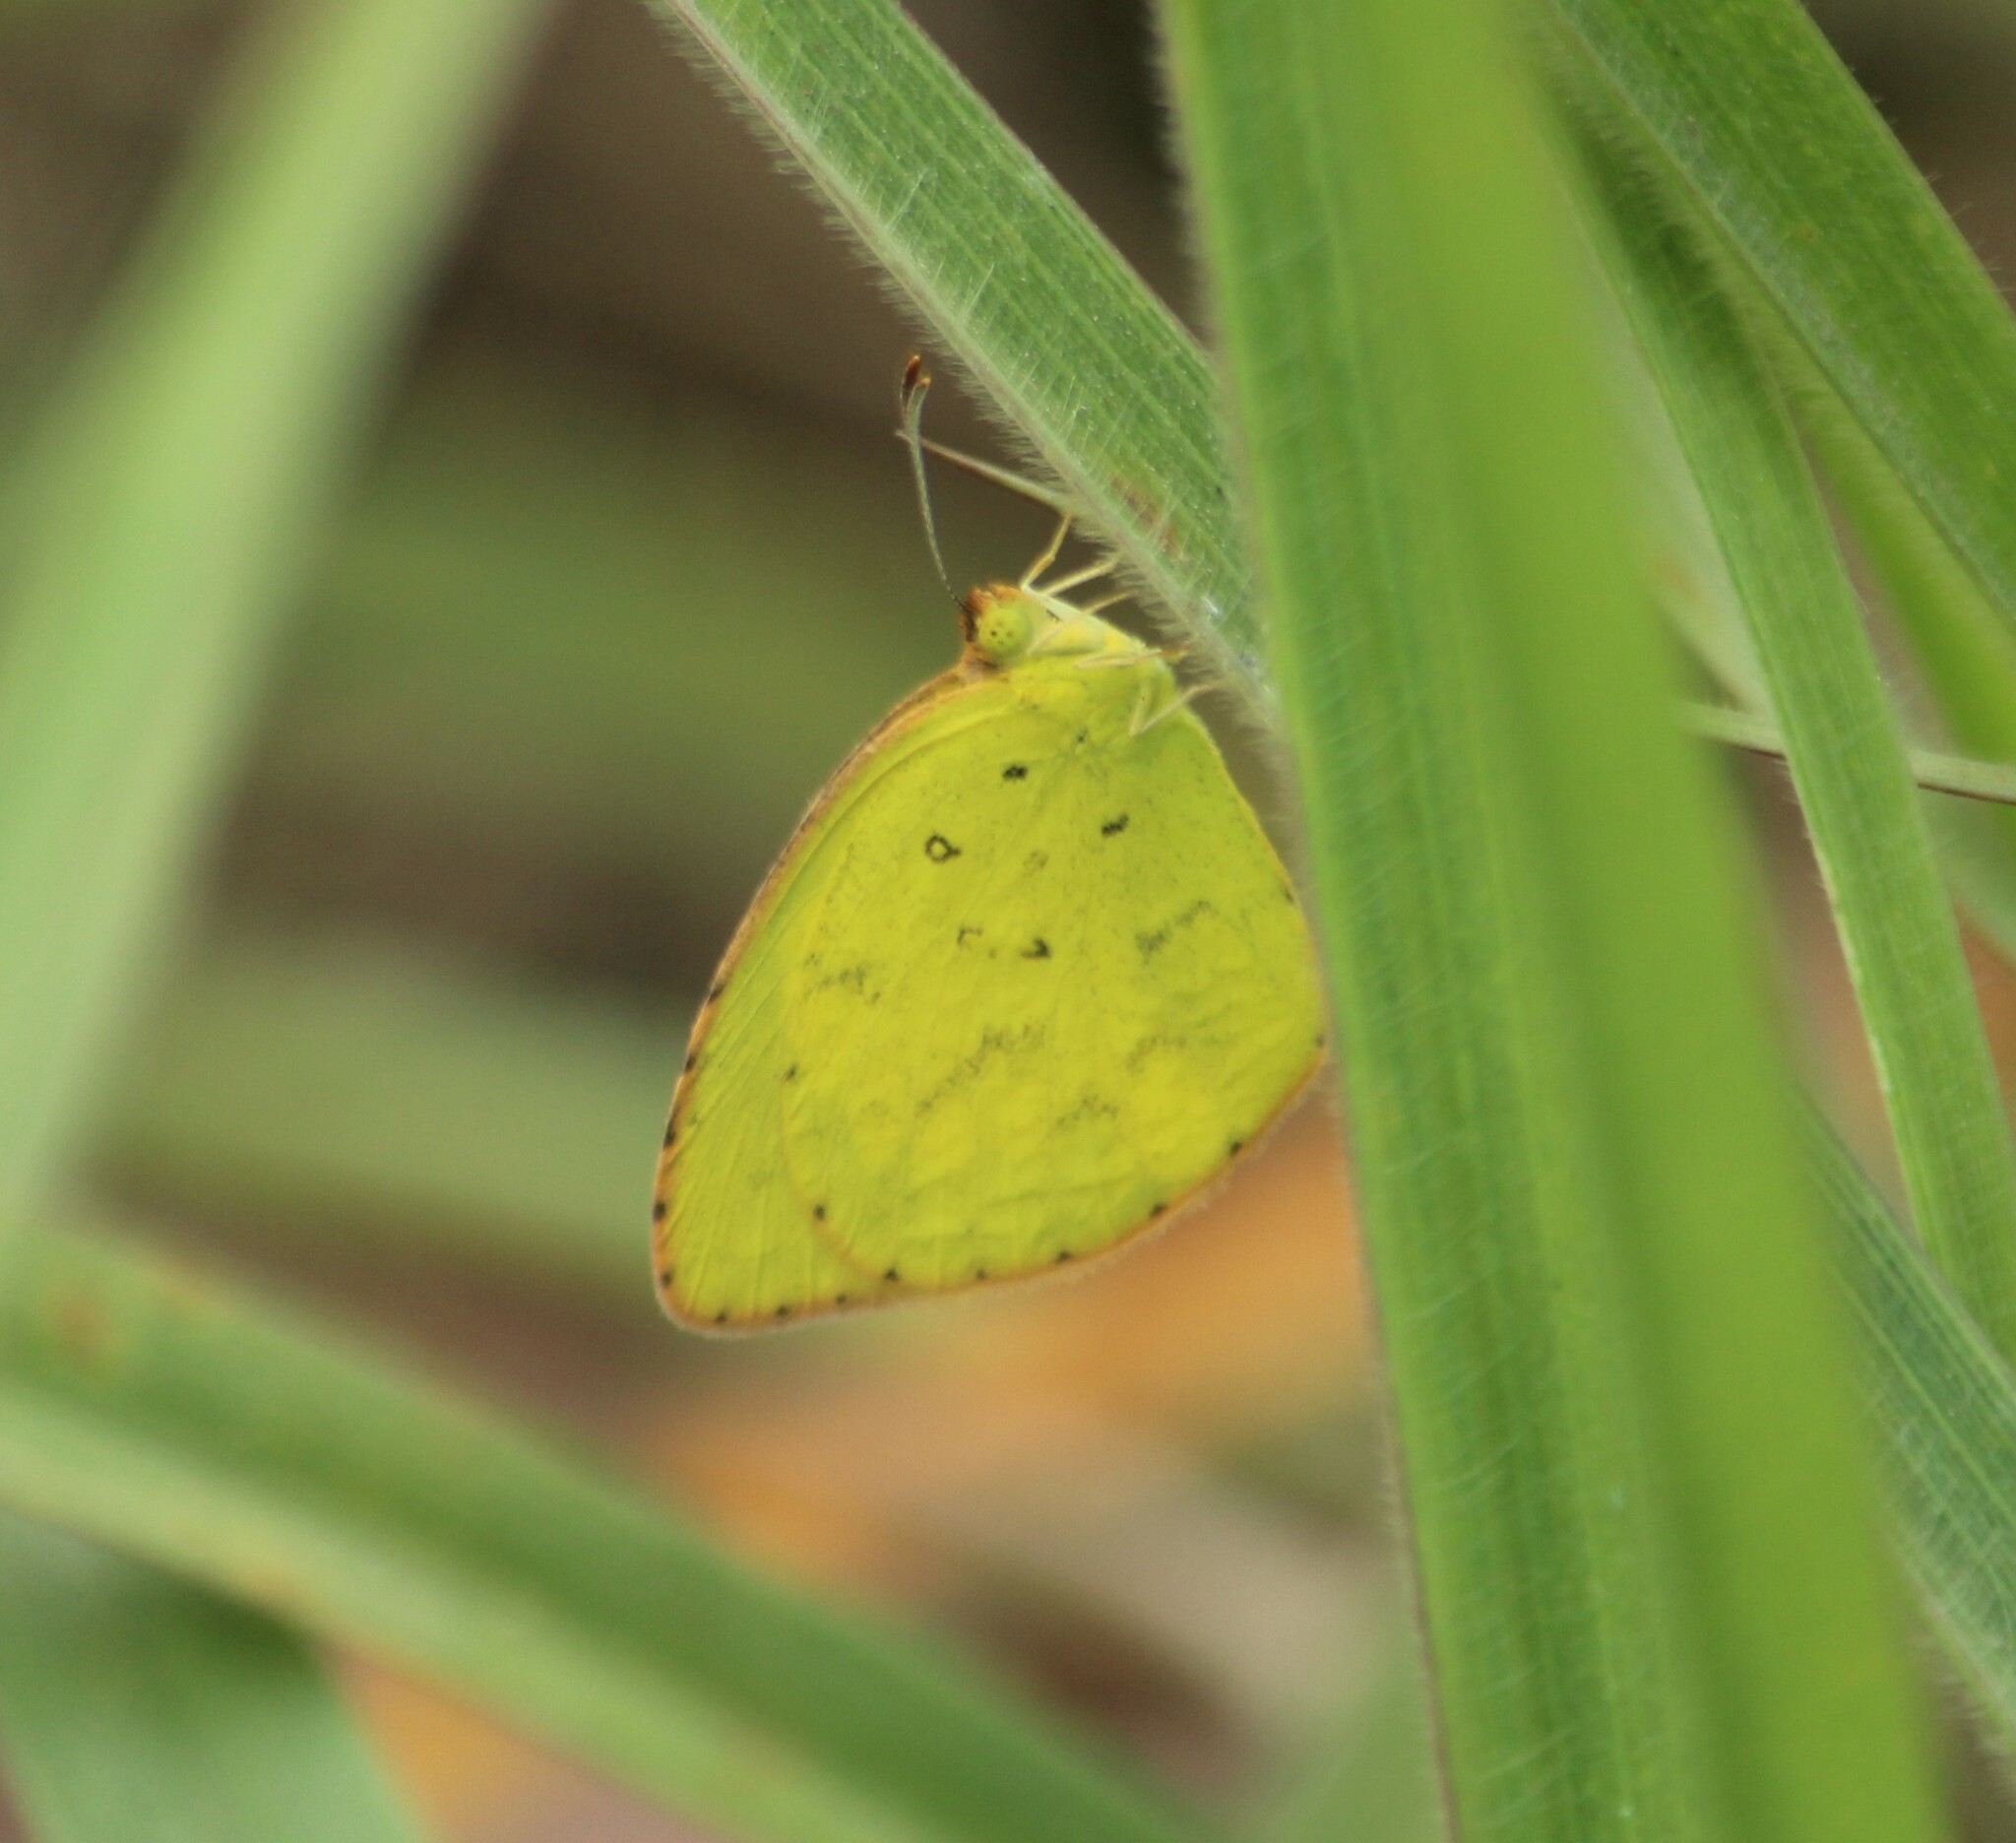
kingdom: Animalia
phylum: Arthropoda
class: Insecta
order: Lepidoptera
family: Pieridae
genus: Eurema
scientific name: Eurema brigitta
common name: Small grass yellow
